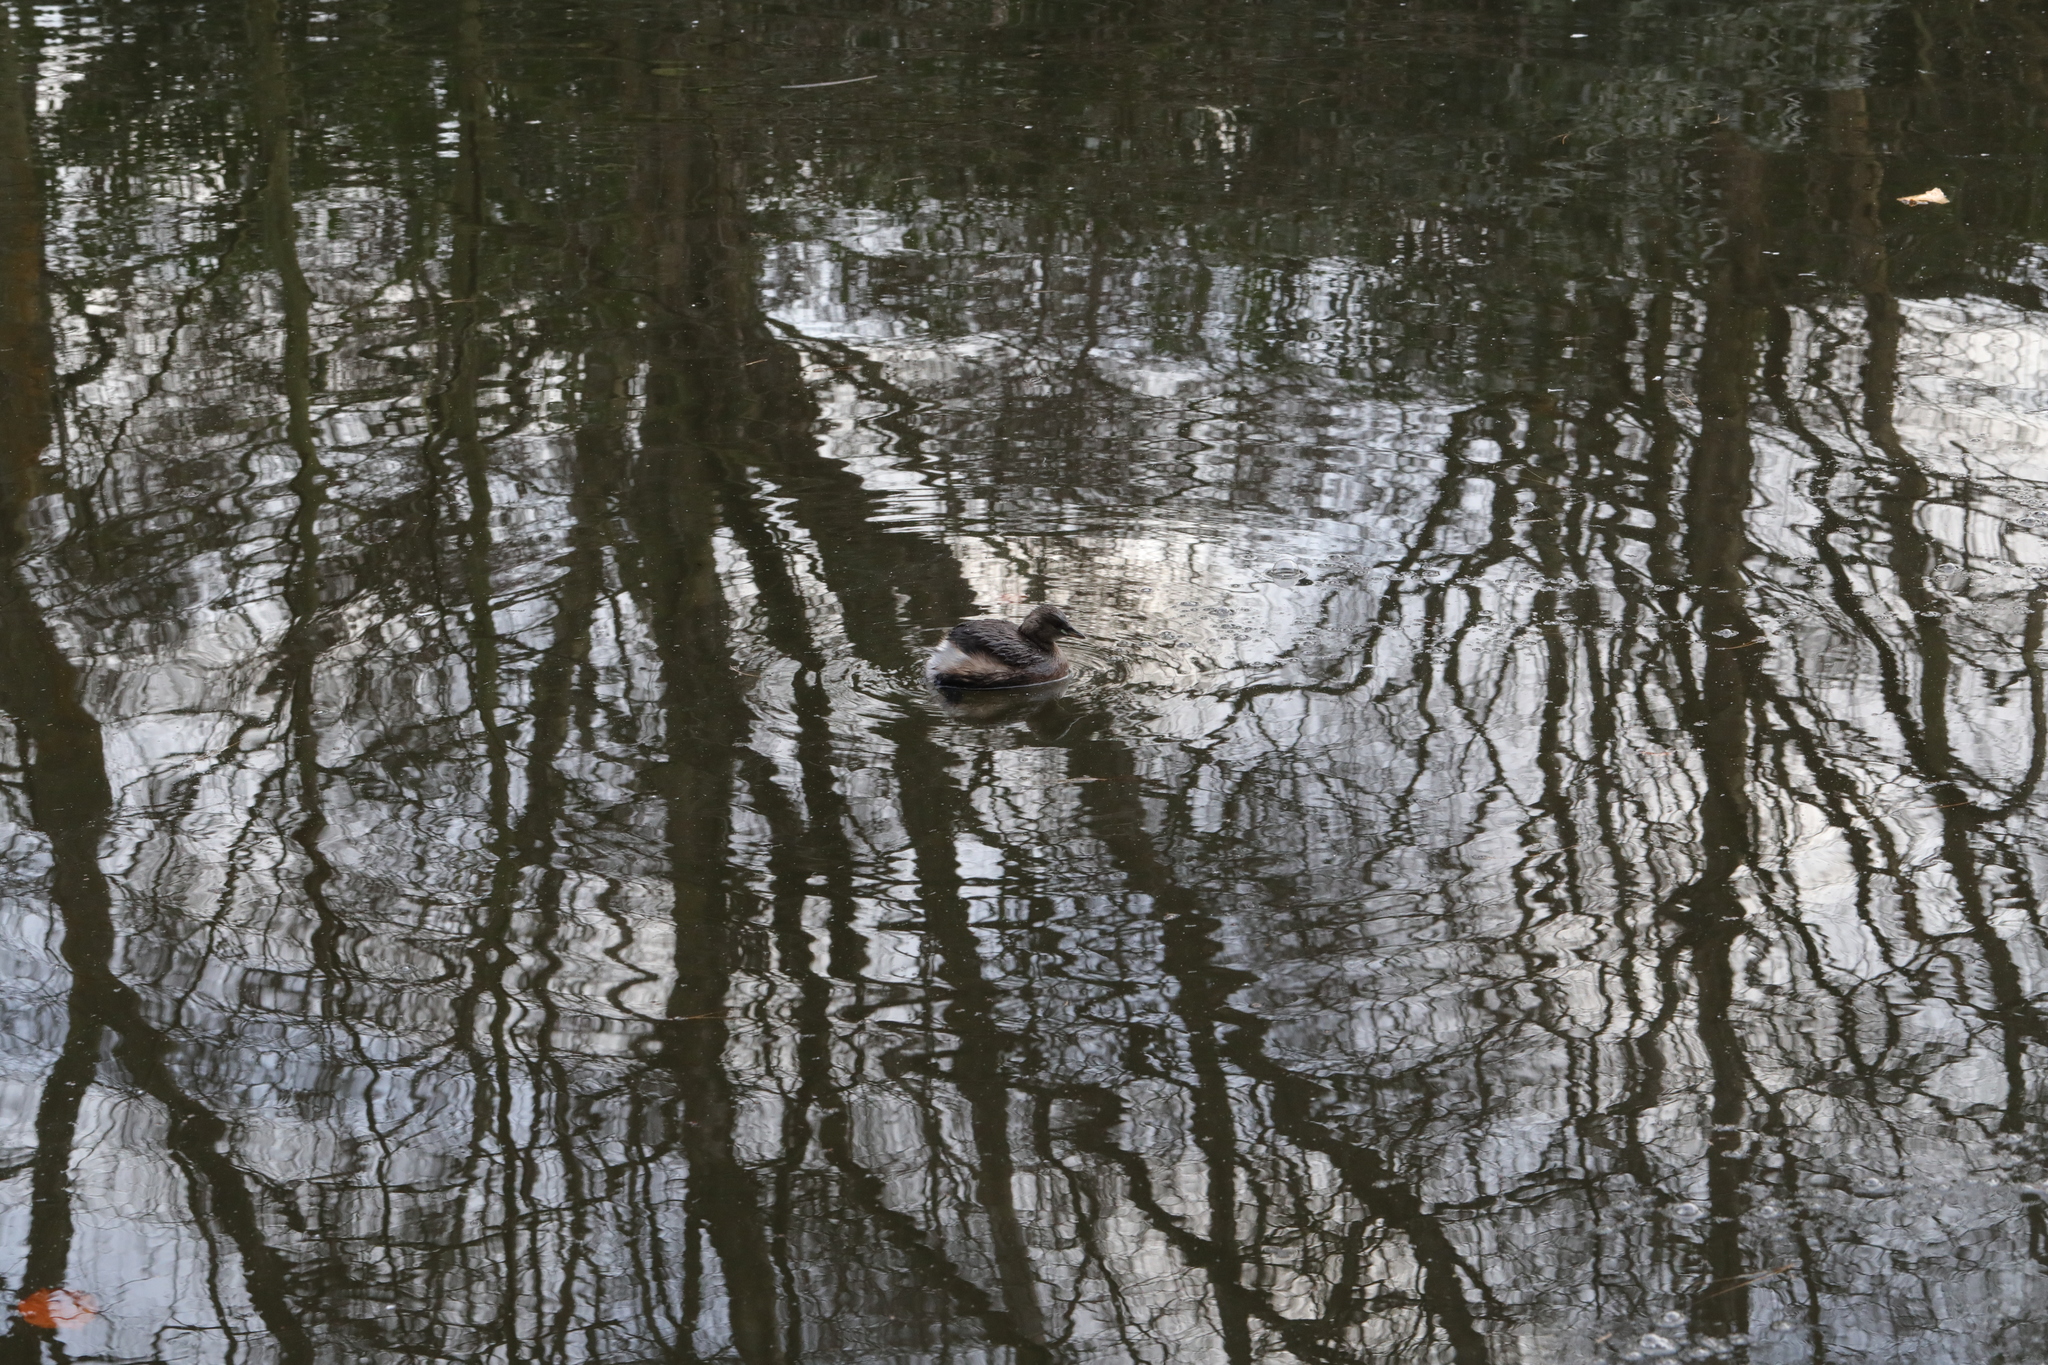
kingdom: Animalia
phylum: Chordata
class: Aves
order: Podicipediformes
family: Podicipedidae
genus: Tachybaptus
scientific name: Tachybaptus ruficollis
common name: Little grebe
